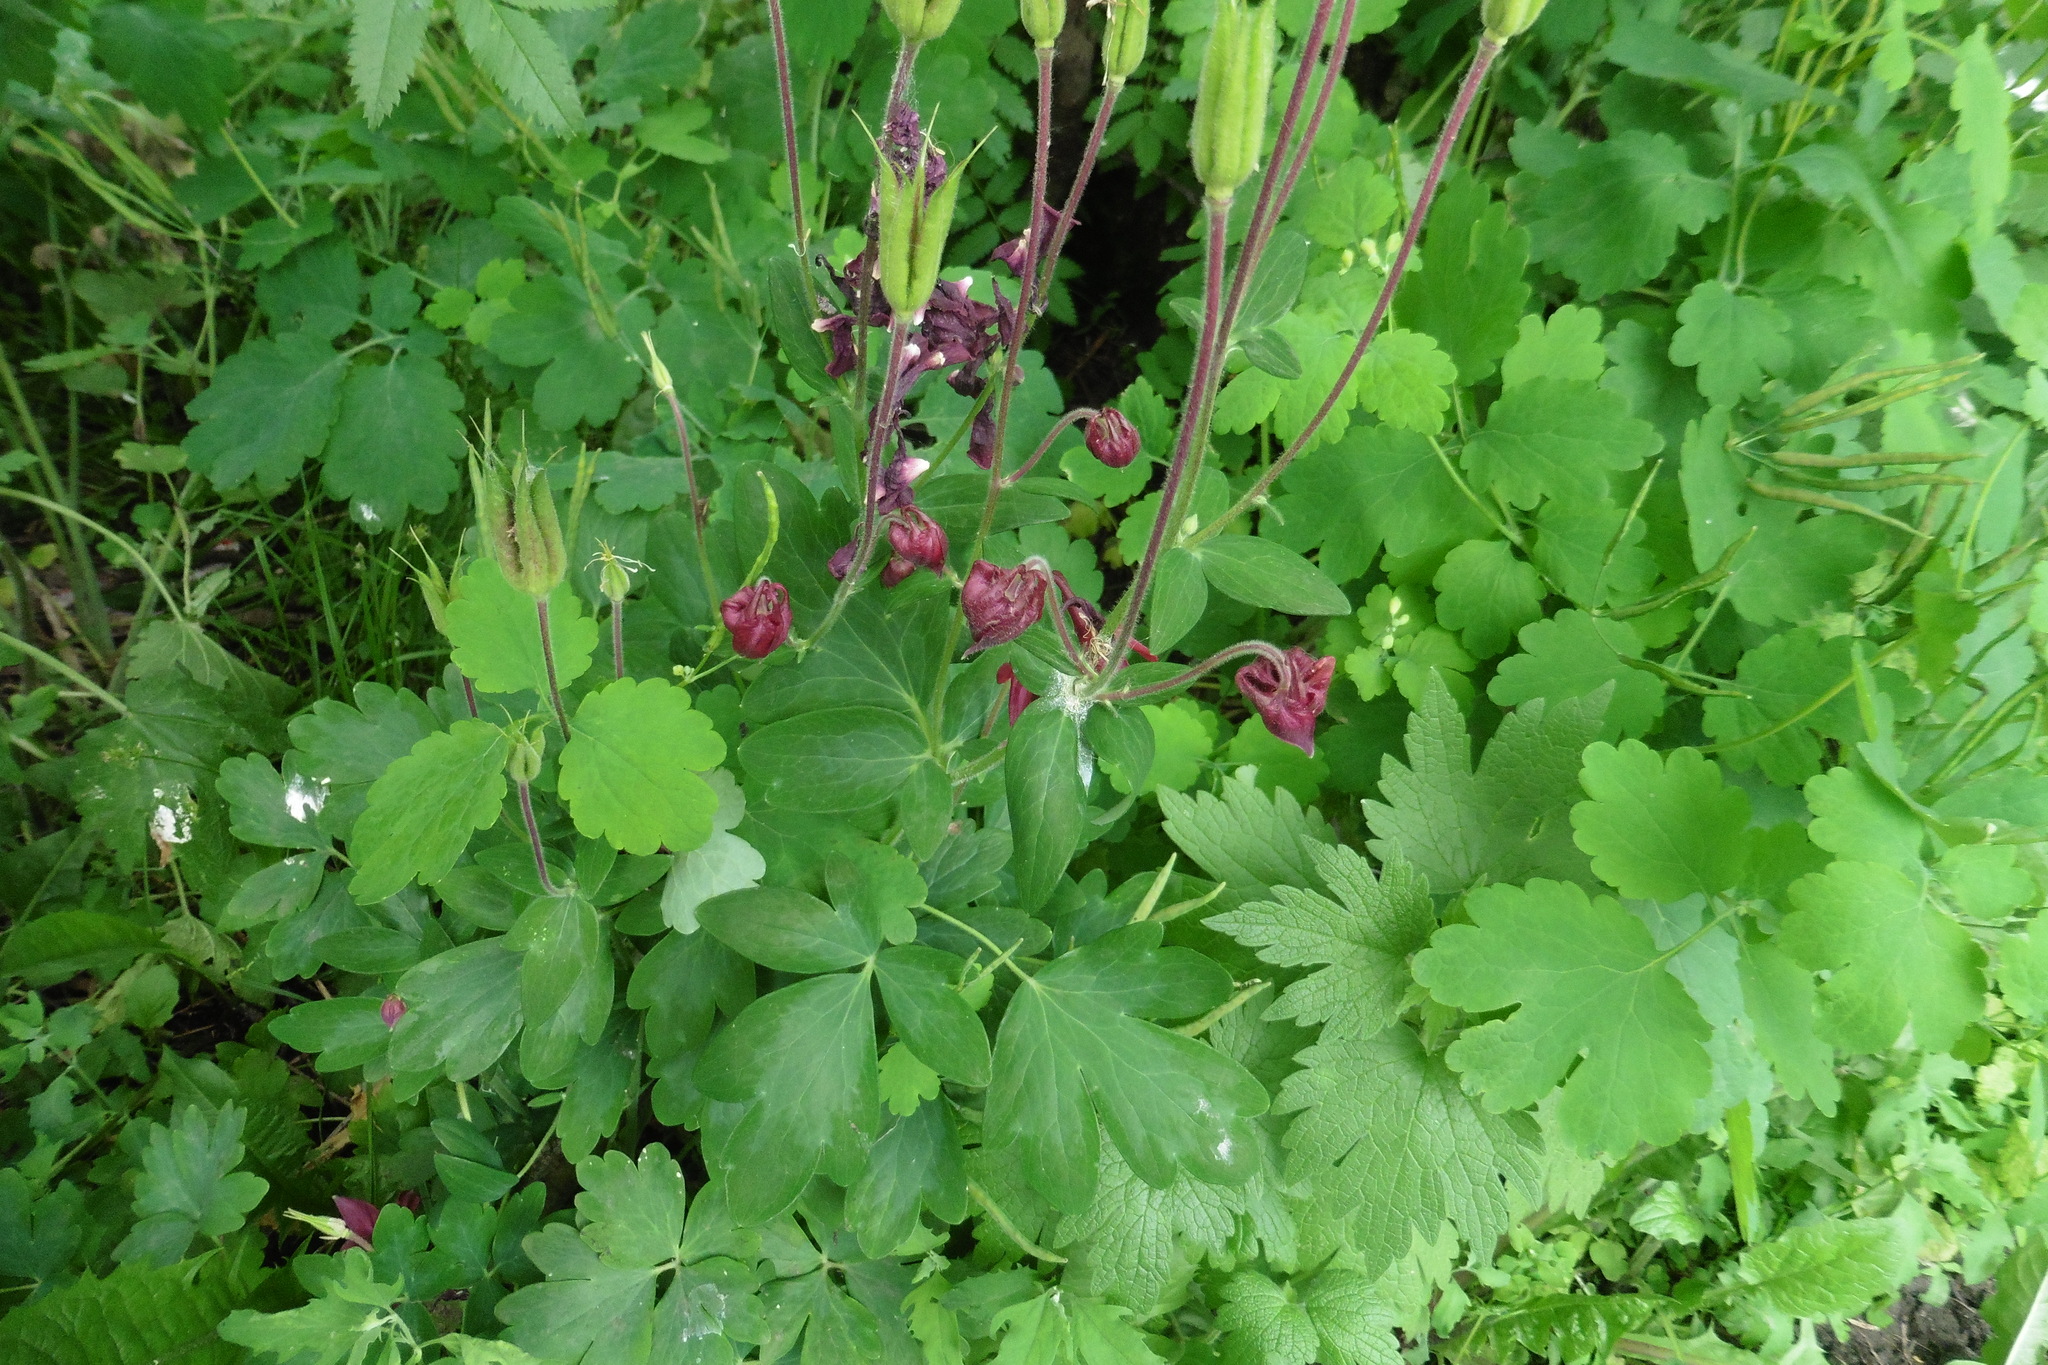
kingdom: Plantae
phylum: Tracheophyta
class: Magnoliopsida
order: Ranunculales
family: Ranunculaceae
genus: Aquilegia
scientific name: Aquilegia vulgaris
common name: Columbine
